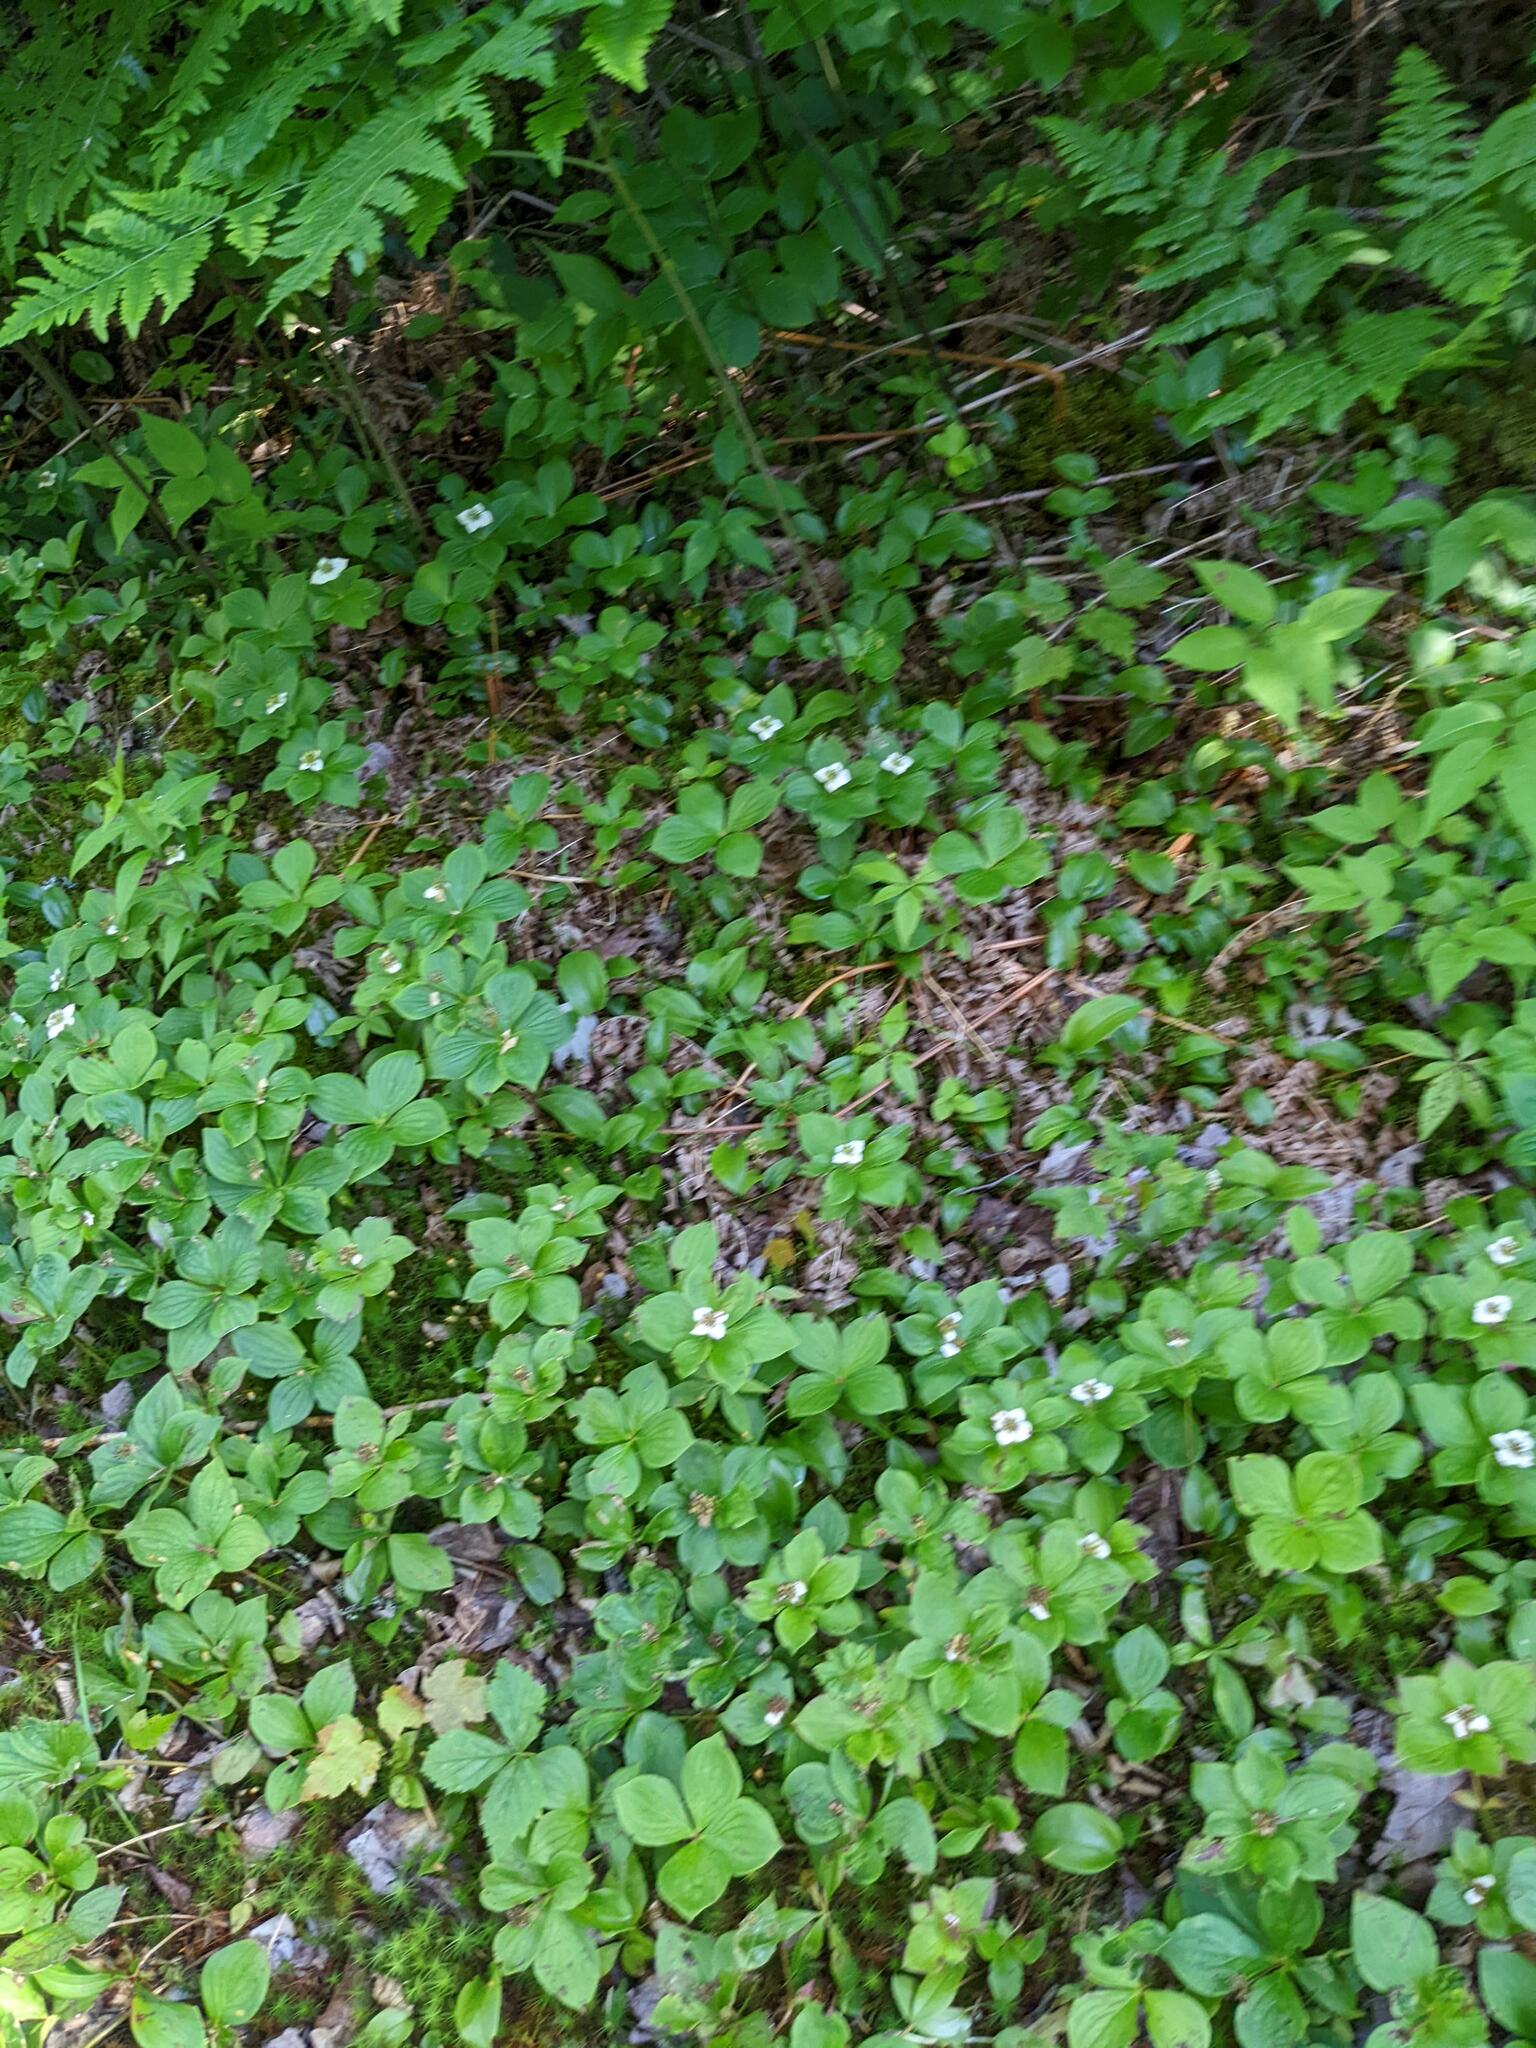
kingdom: Plantae
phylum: Tracheophyta
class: Magnoliopsida
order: Cornales
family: Cornaceae
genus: Cornus
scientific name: Cornus canadensis
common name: Creeping dogwood
